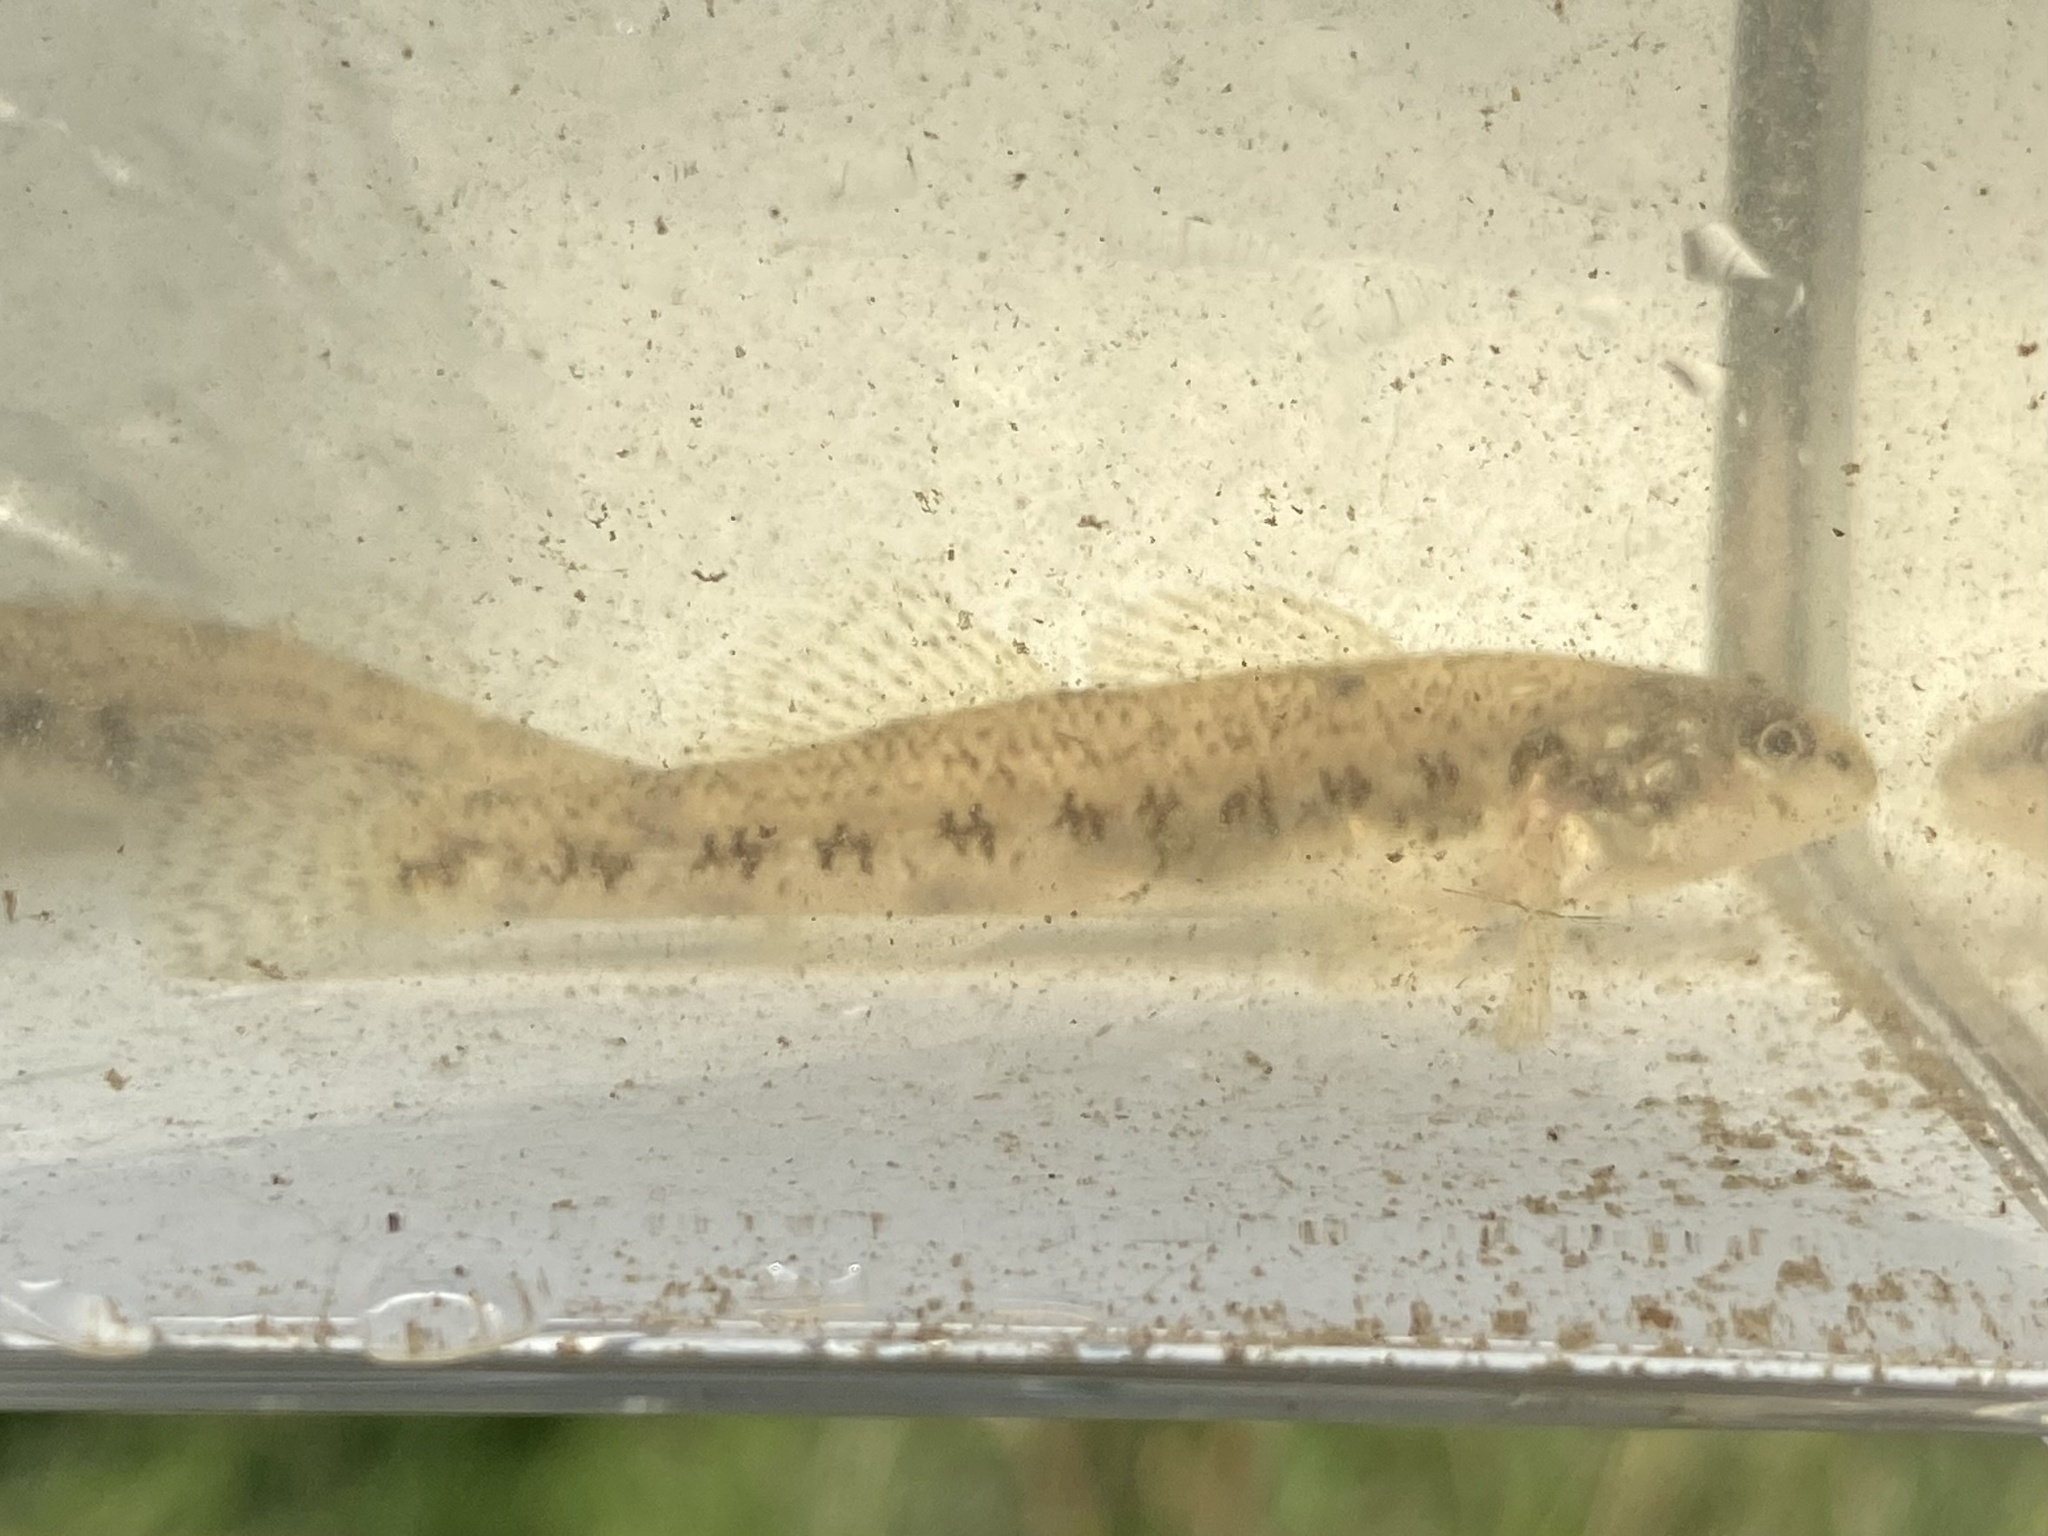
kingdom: Animalia
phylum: Chordata
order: Perciformes
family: Percidae
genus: Etheostoma
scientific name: Etheostoma nigrum
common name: Johnny darter
